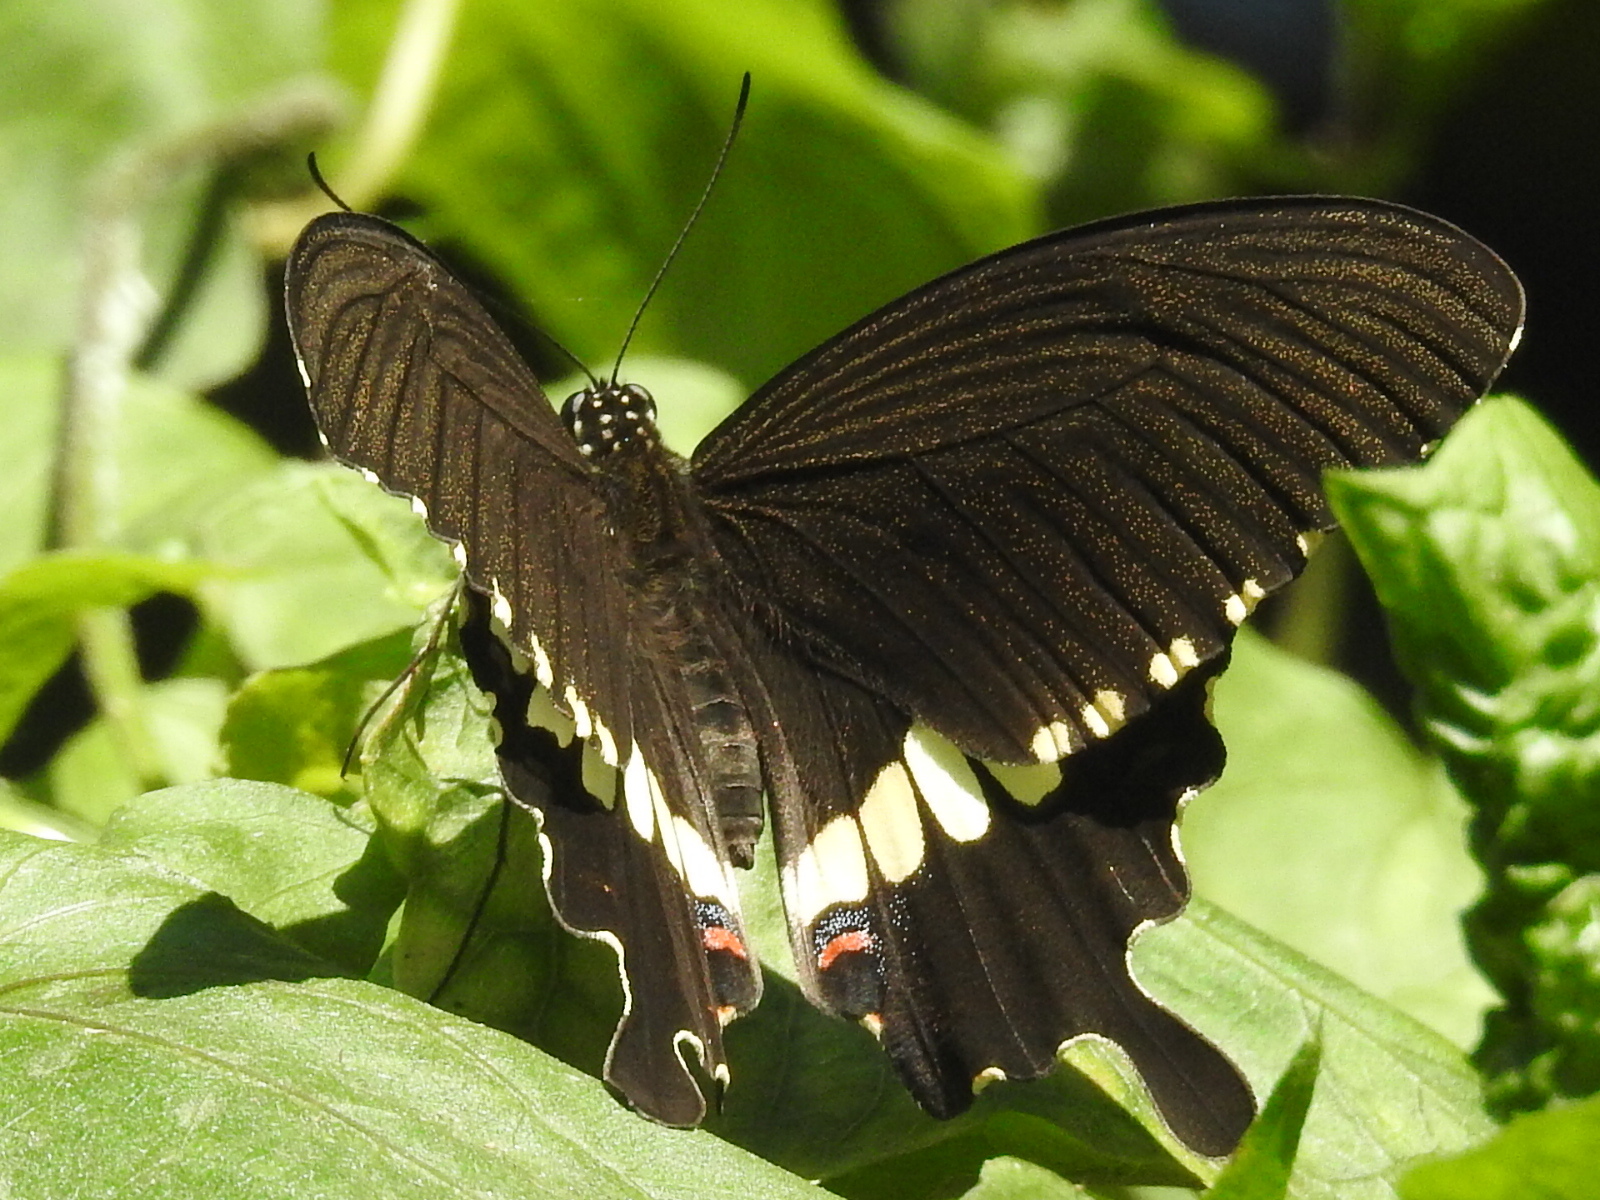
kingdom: Animalia
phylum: Arthropoda
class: Insecta
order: Lepidoptera
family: Papilionidae
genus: Papilio
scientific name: Papilio polytes
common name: Common mormon
